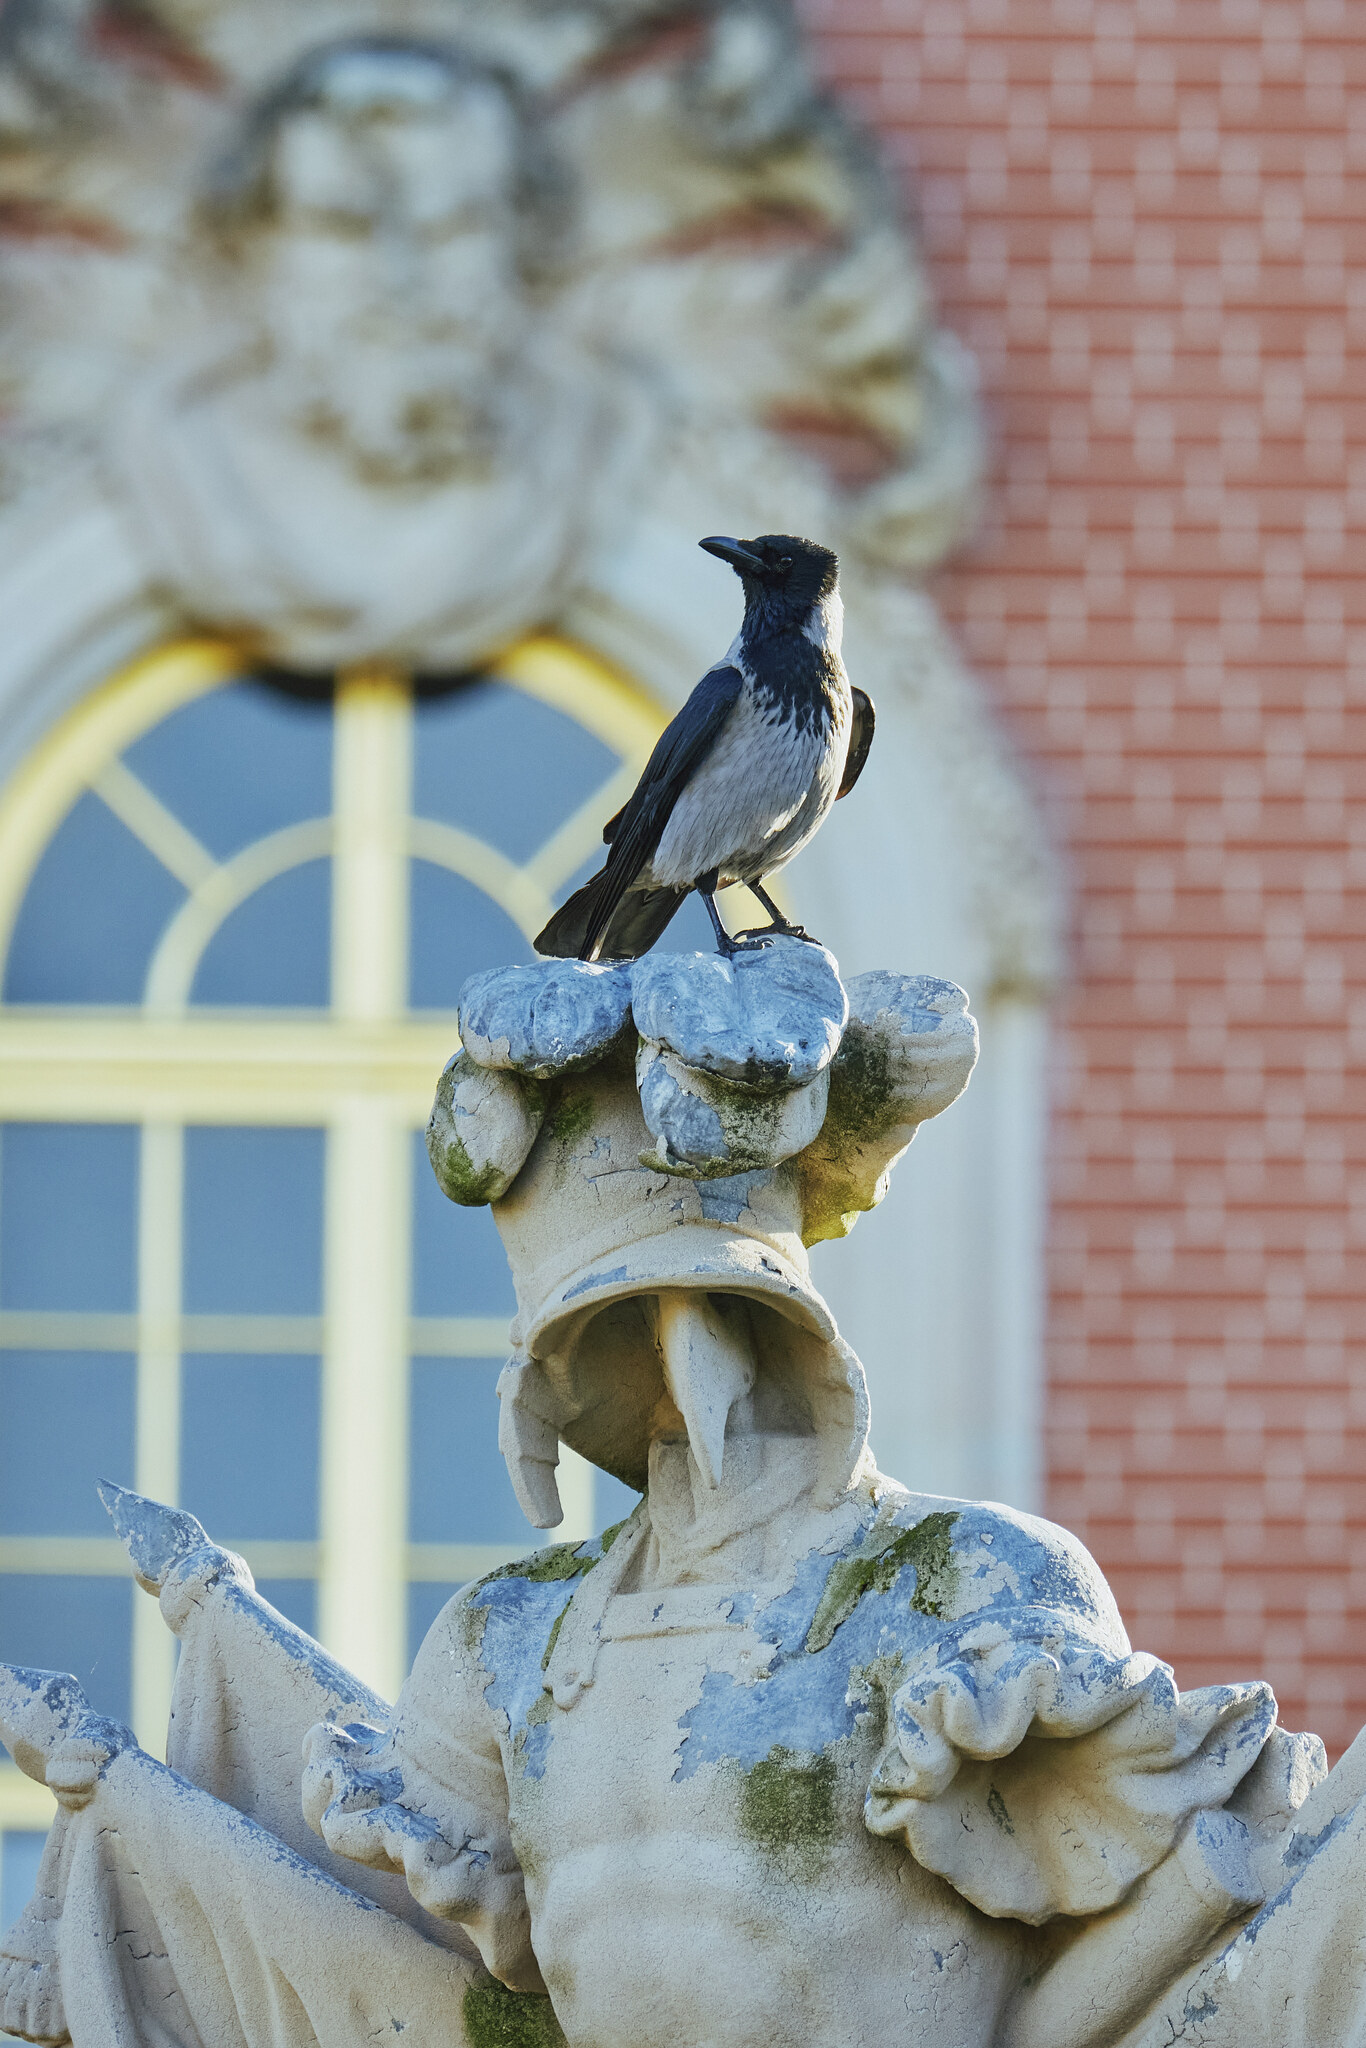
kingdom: Animalia
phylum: Chordata
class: Aves
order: Passeriformes
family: Corvidae
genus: Corvus
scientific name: Corvus cornix
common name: Hooded crow
